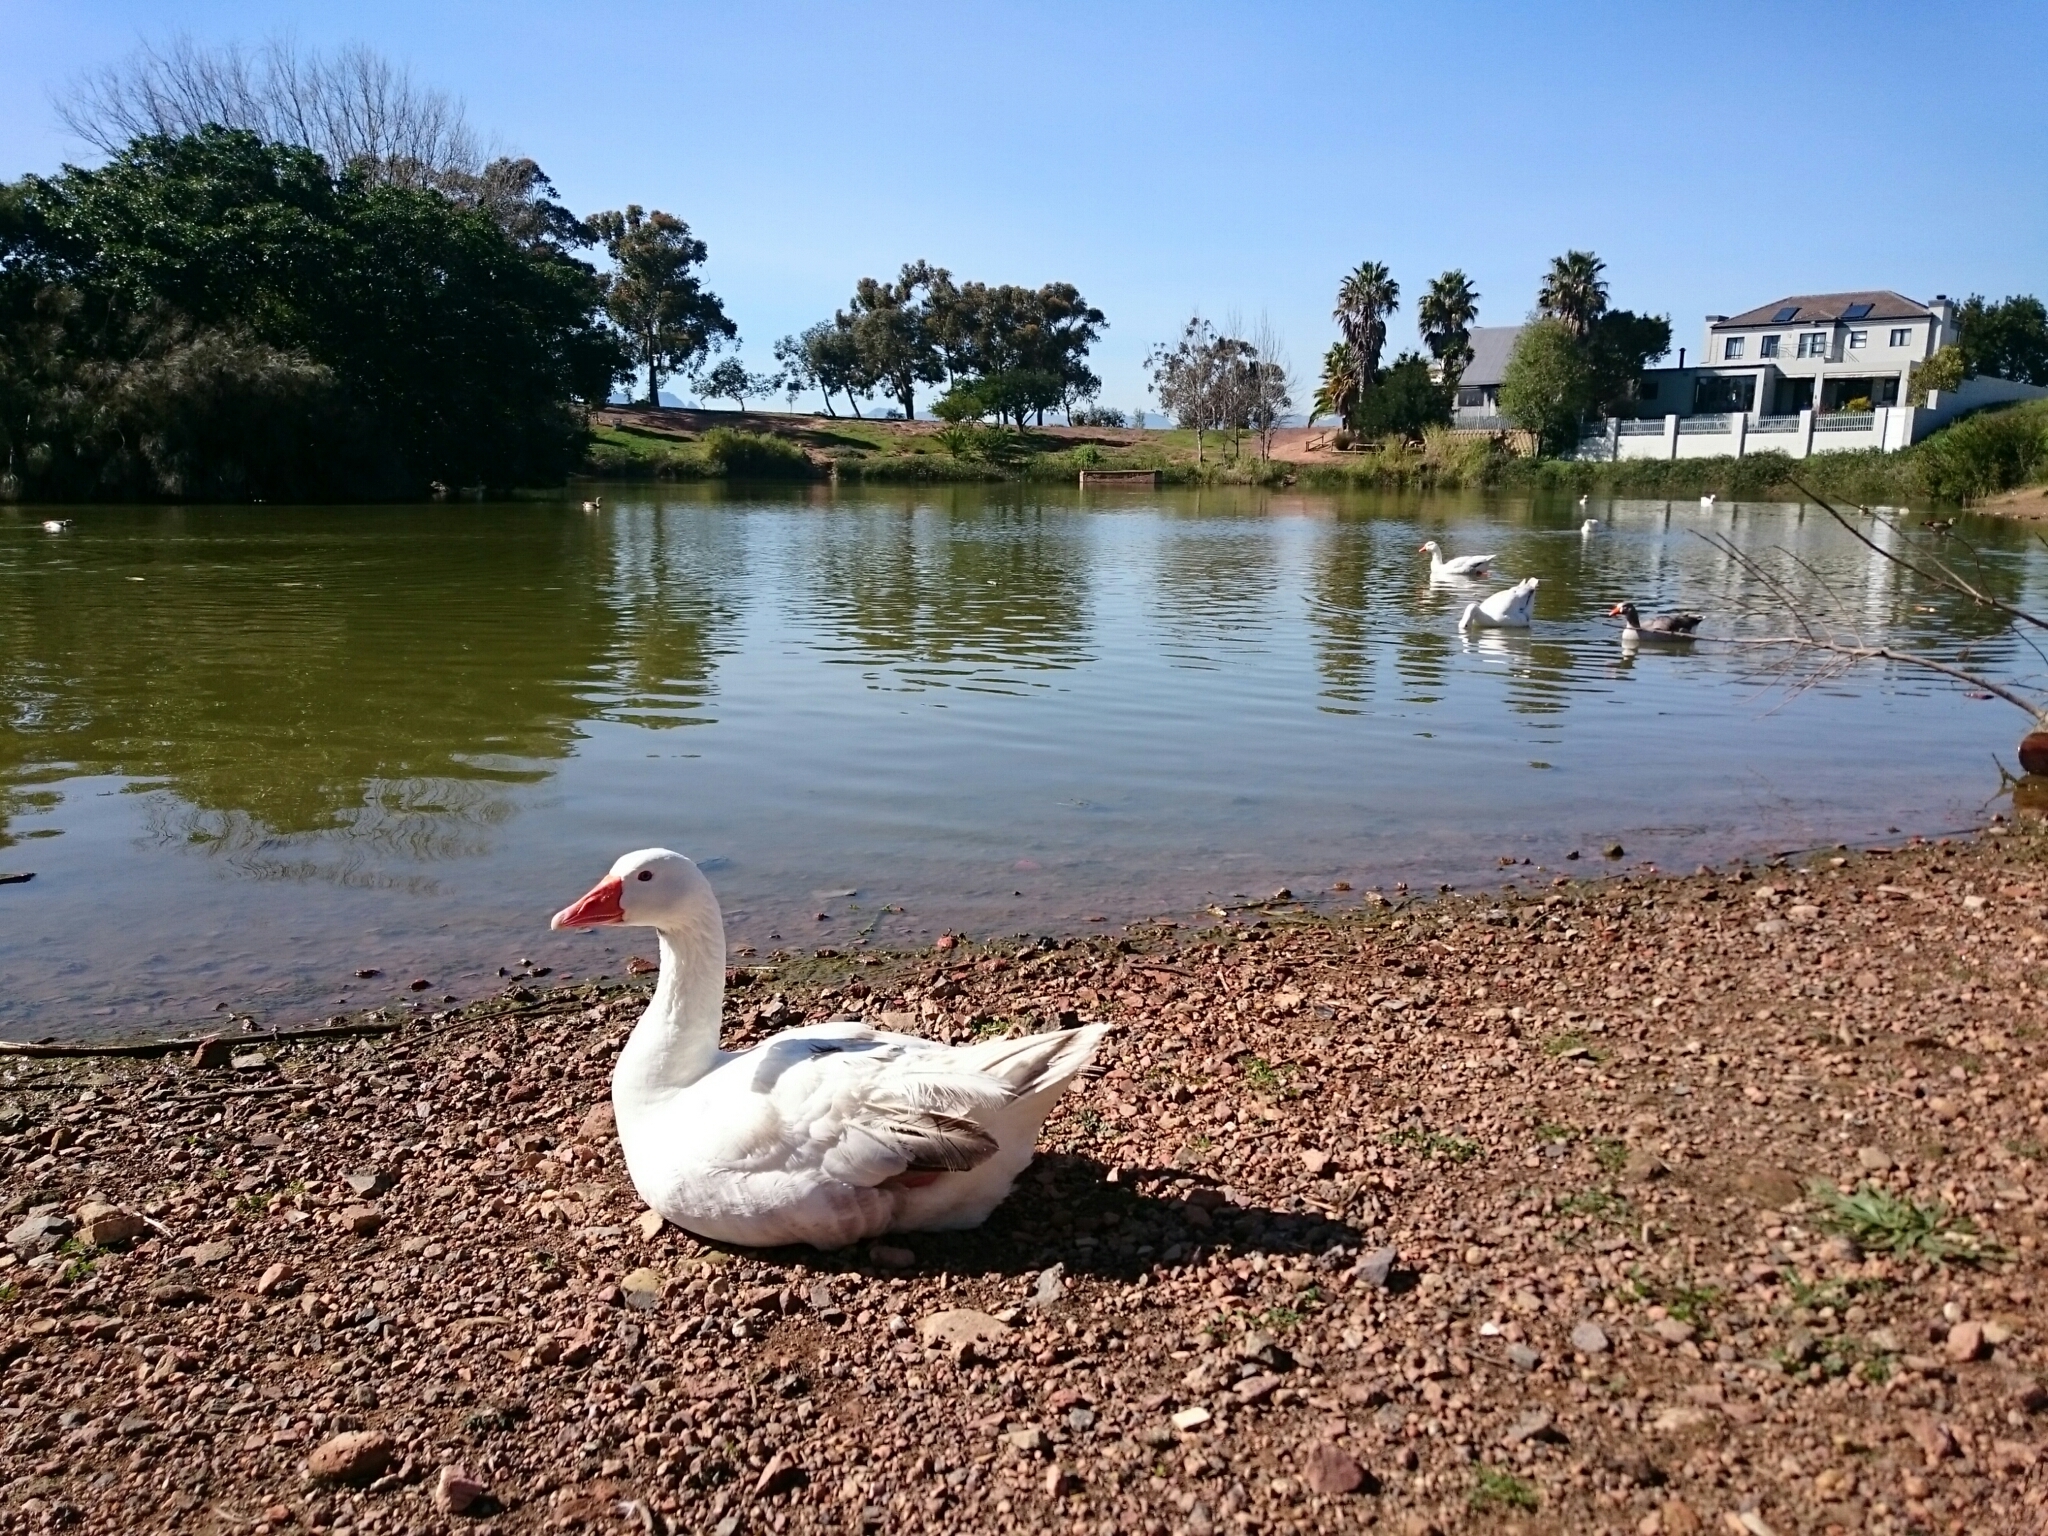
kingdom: Animalia
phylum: Chordata
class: Aves
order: Anseriformes
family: Anatidae
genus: Anser
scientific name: Anser anser
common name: Greylag goose
